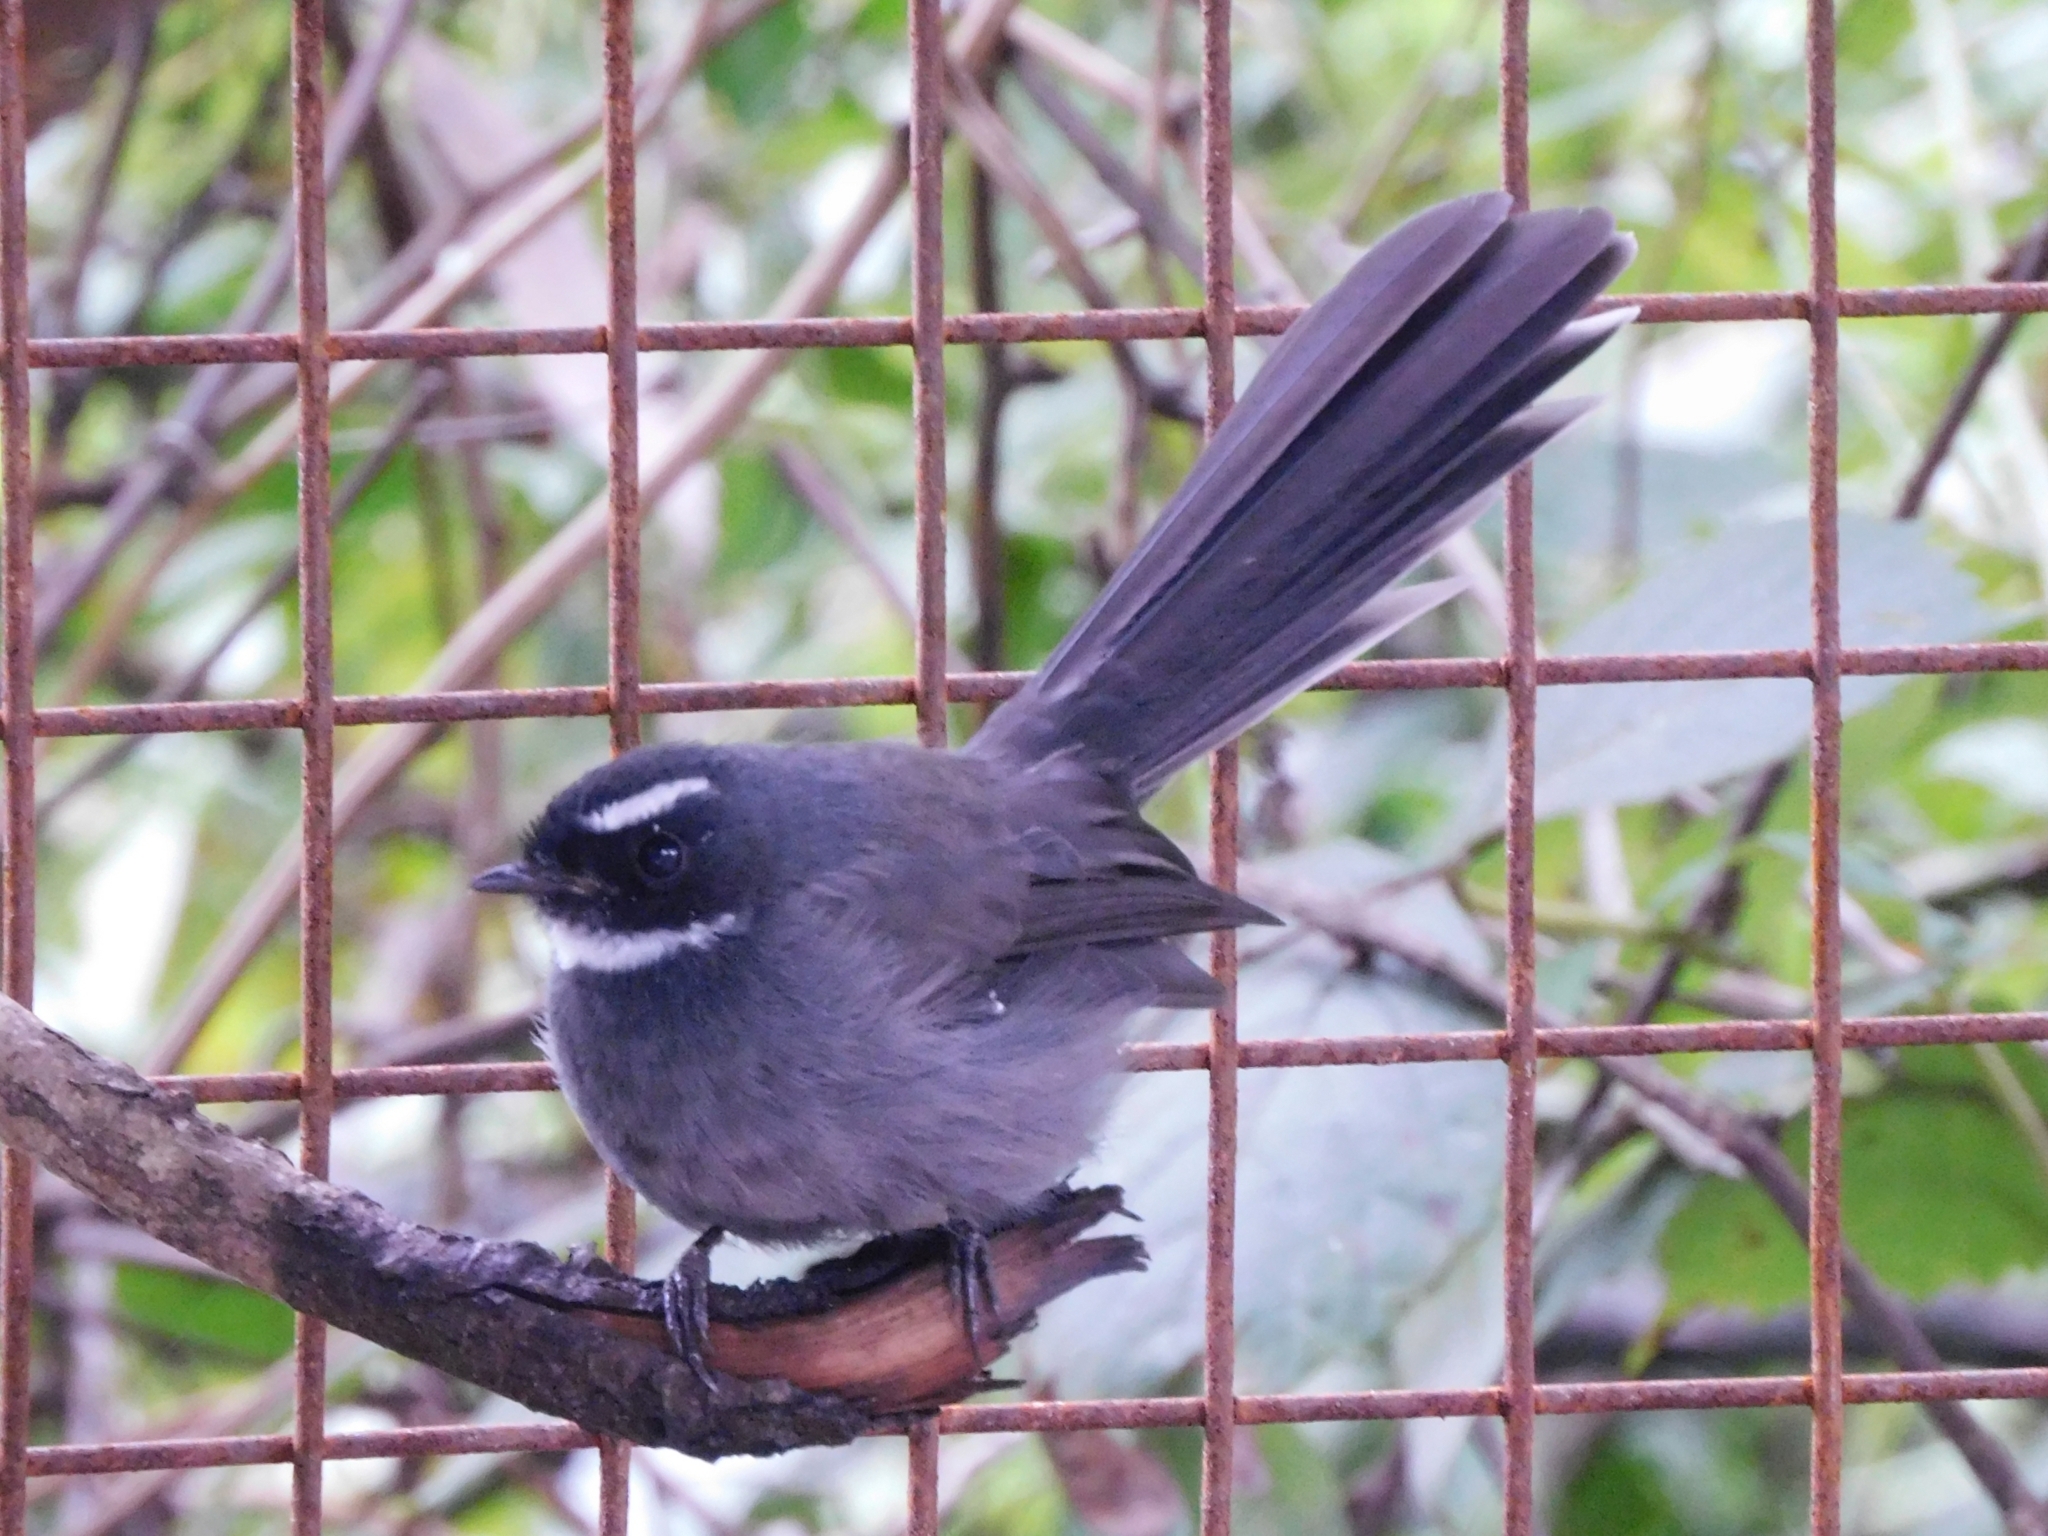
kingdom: Animalia
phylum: Chordata
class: Aves
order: Passeriformes
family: Rhipiduridae
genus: Rhipidura
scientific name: Rhipidura albicollis
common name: White-throated fantail
